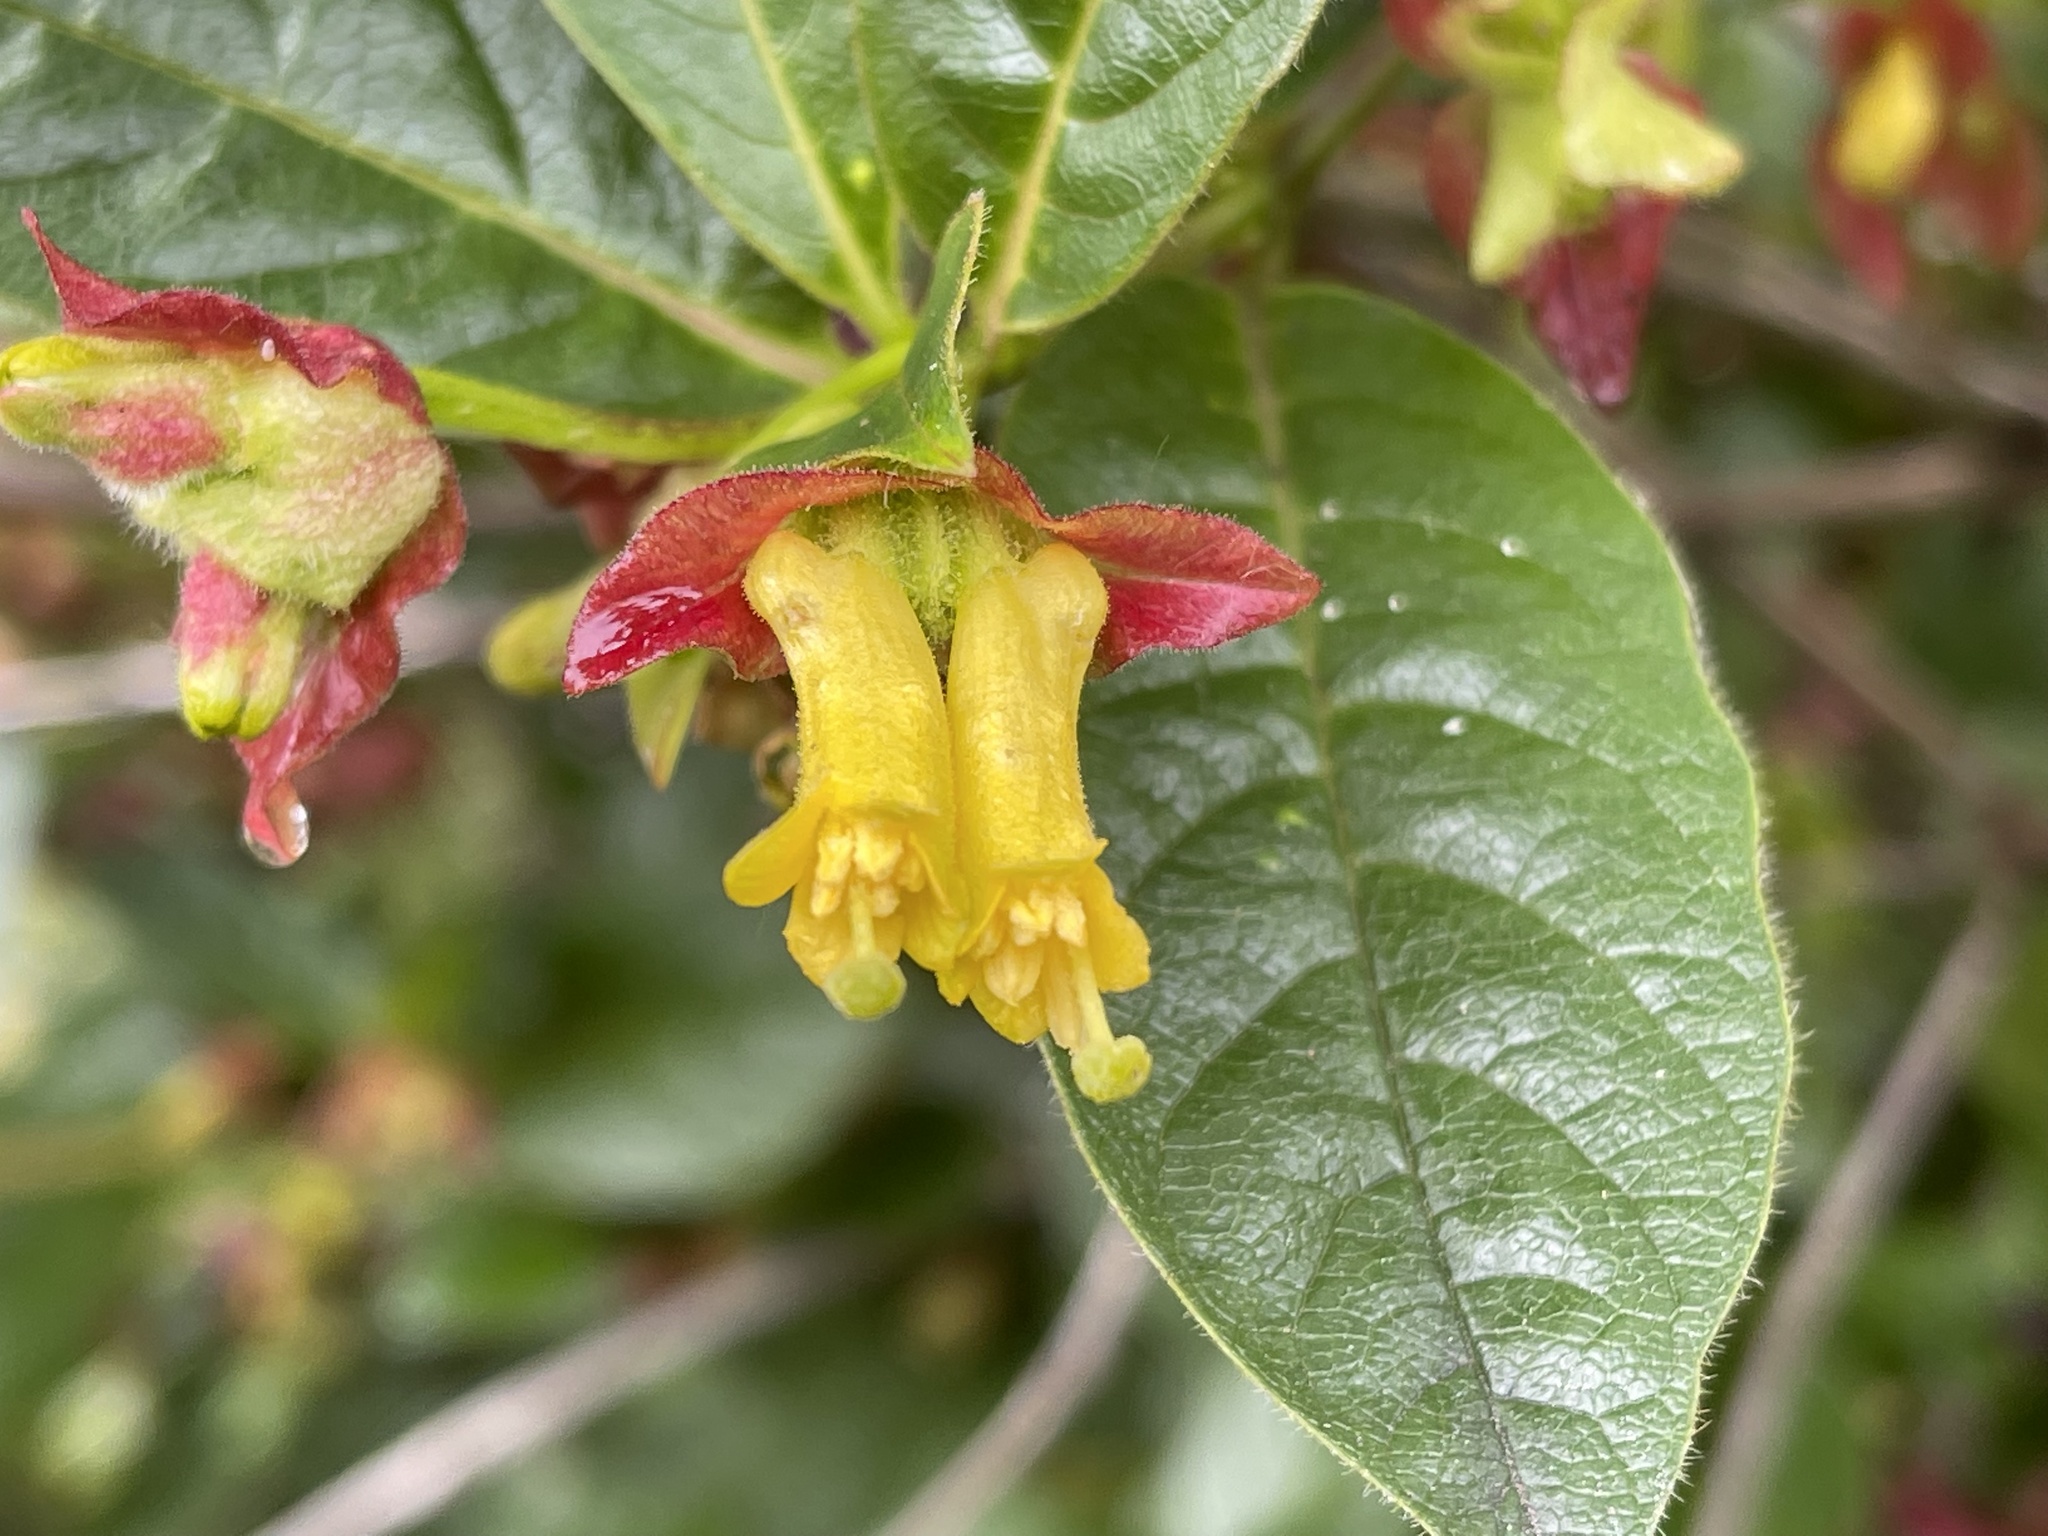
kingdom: Plantae
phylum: Tracheophyta
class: Magnoliopsida
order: Dipsacales
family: Caprifoliaceae
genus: Lonicera
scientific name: Lonicera involucrata
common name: Californian honeysuckle
